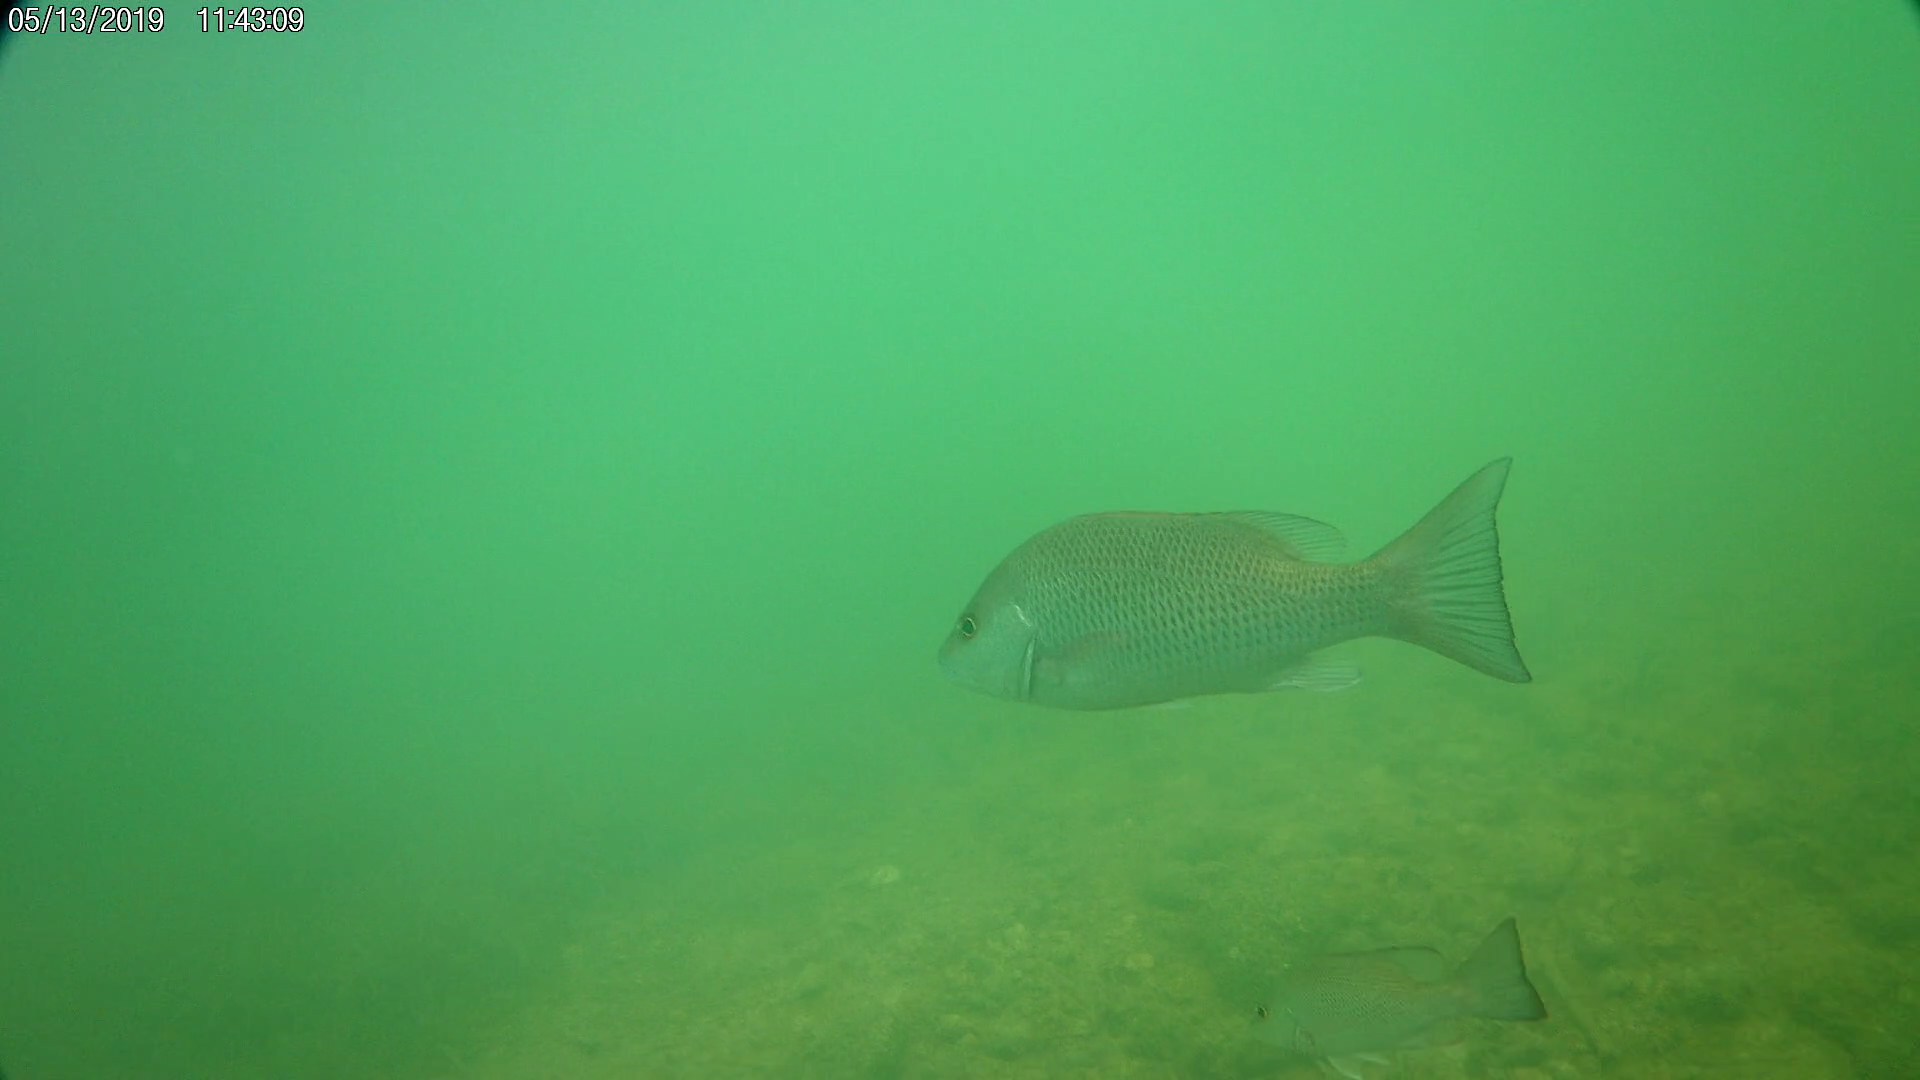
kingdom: Animalia
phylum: Chordata
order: Perciformes
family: Lutjanidae
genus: Lutjanus
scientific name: Lutjanus griseus
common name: Gray snapper
